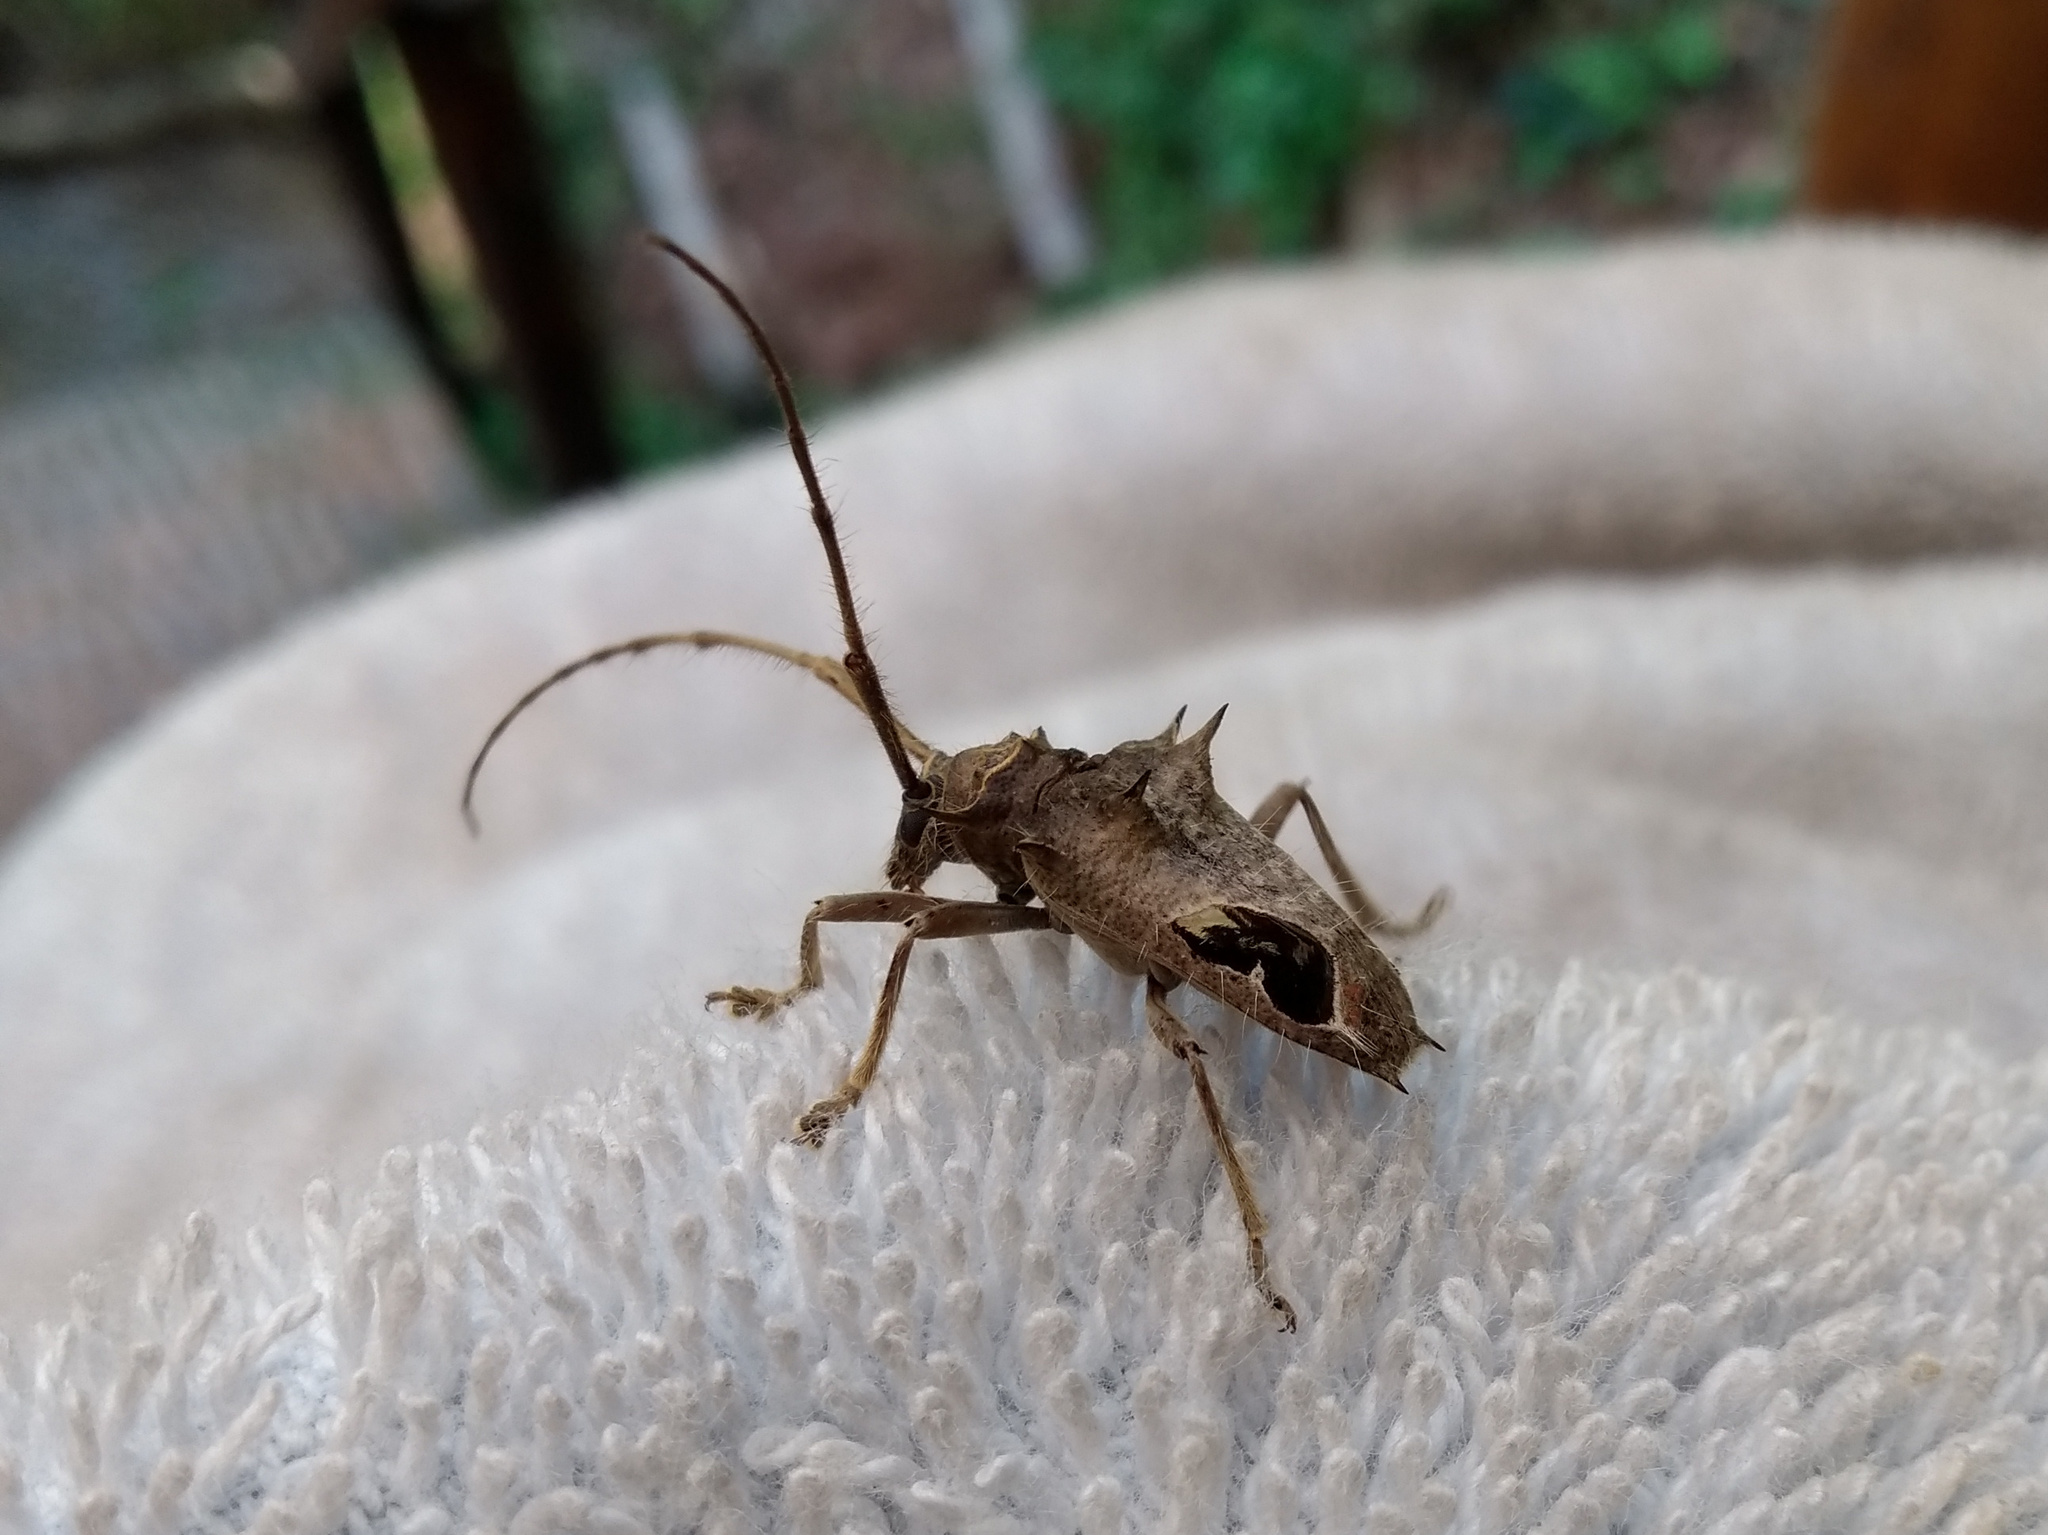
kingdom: Animalia
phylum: Arthropoda
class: Insecta
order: Coleoptera
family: Cerambycidae
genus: Megabasis
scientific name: Megabasis speculifera
